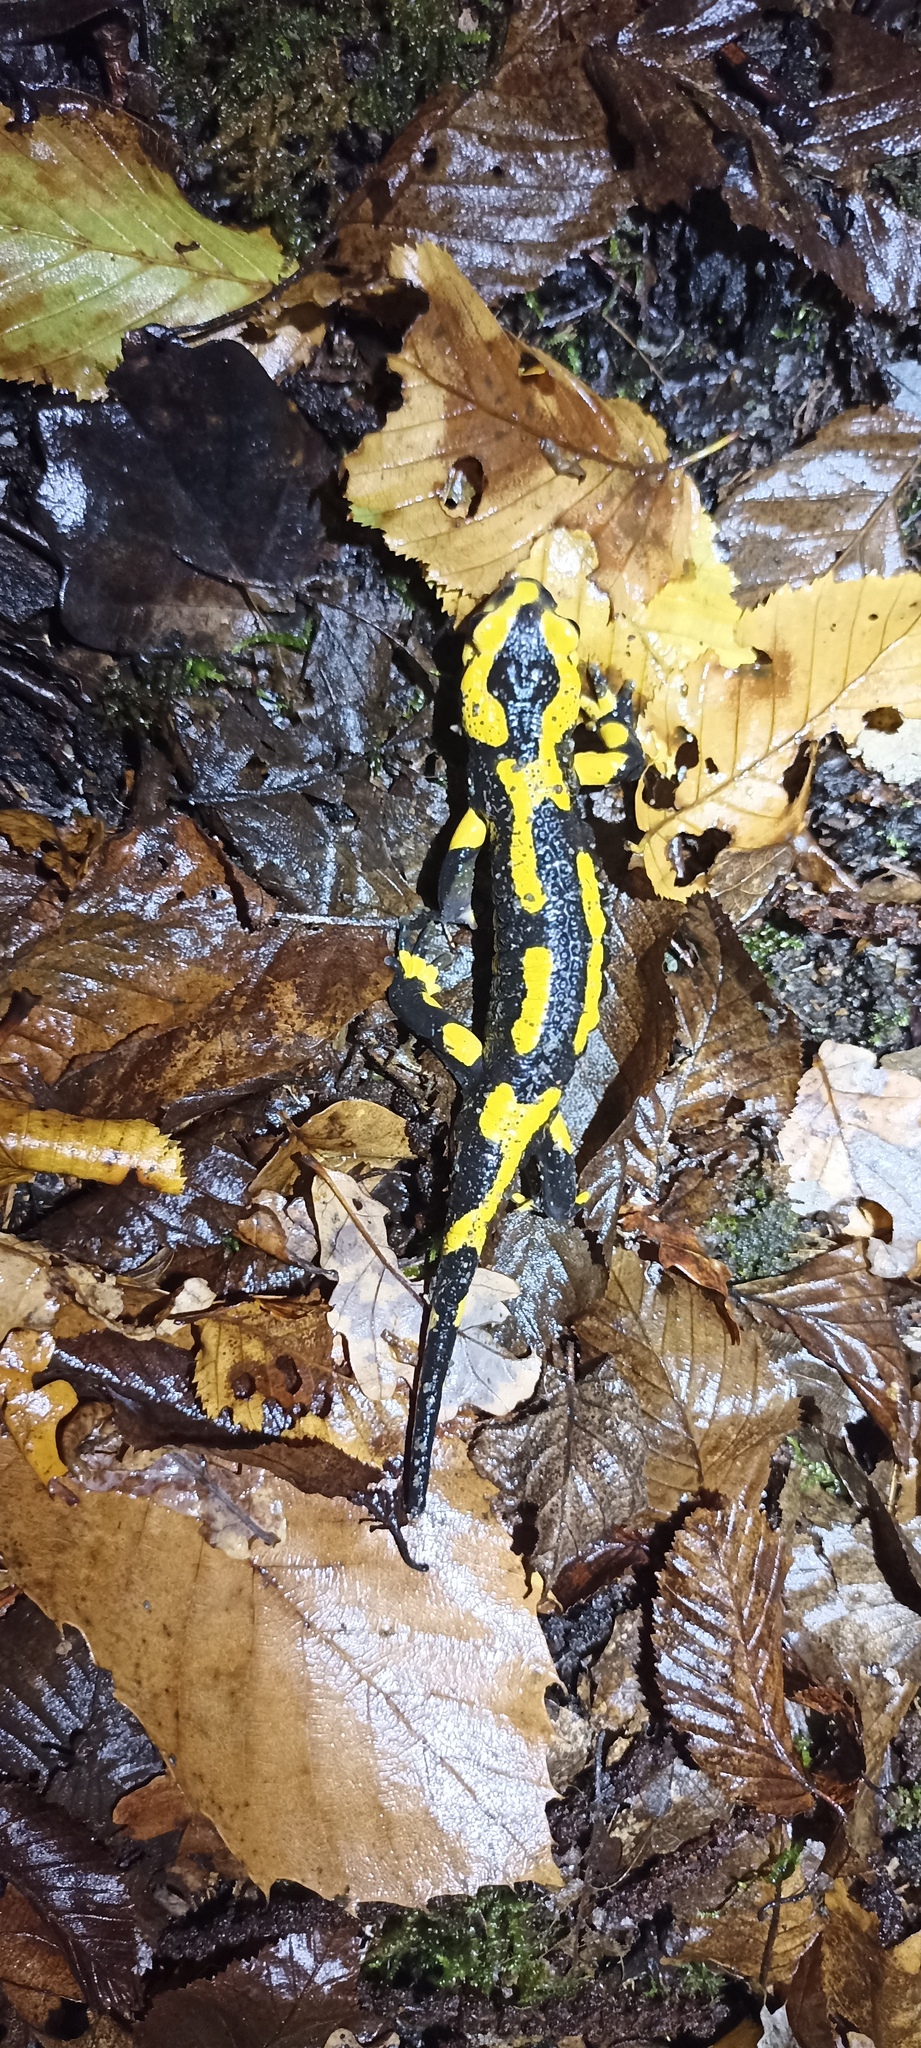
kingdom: Animalia
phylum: Chordata
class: Amphibia
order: Caudata
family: Salamandridae
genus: Salamandra
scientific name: Salamandra salamandra
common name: Fire salamander
